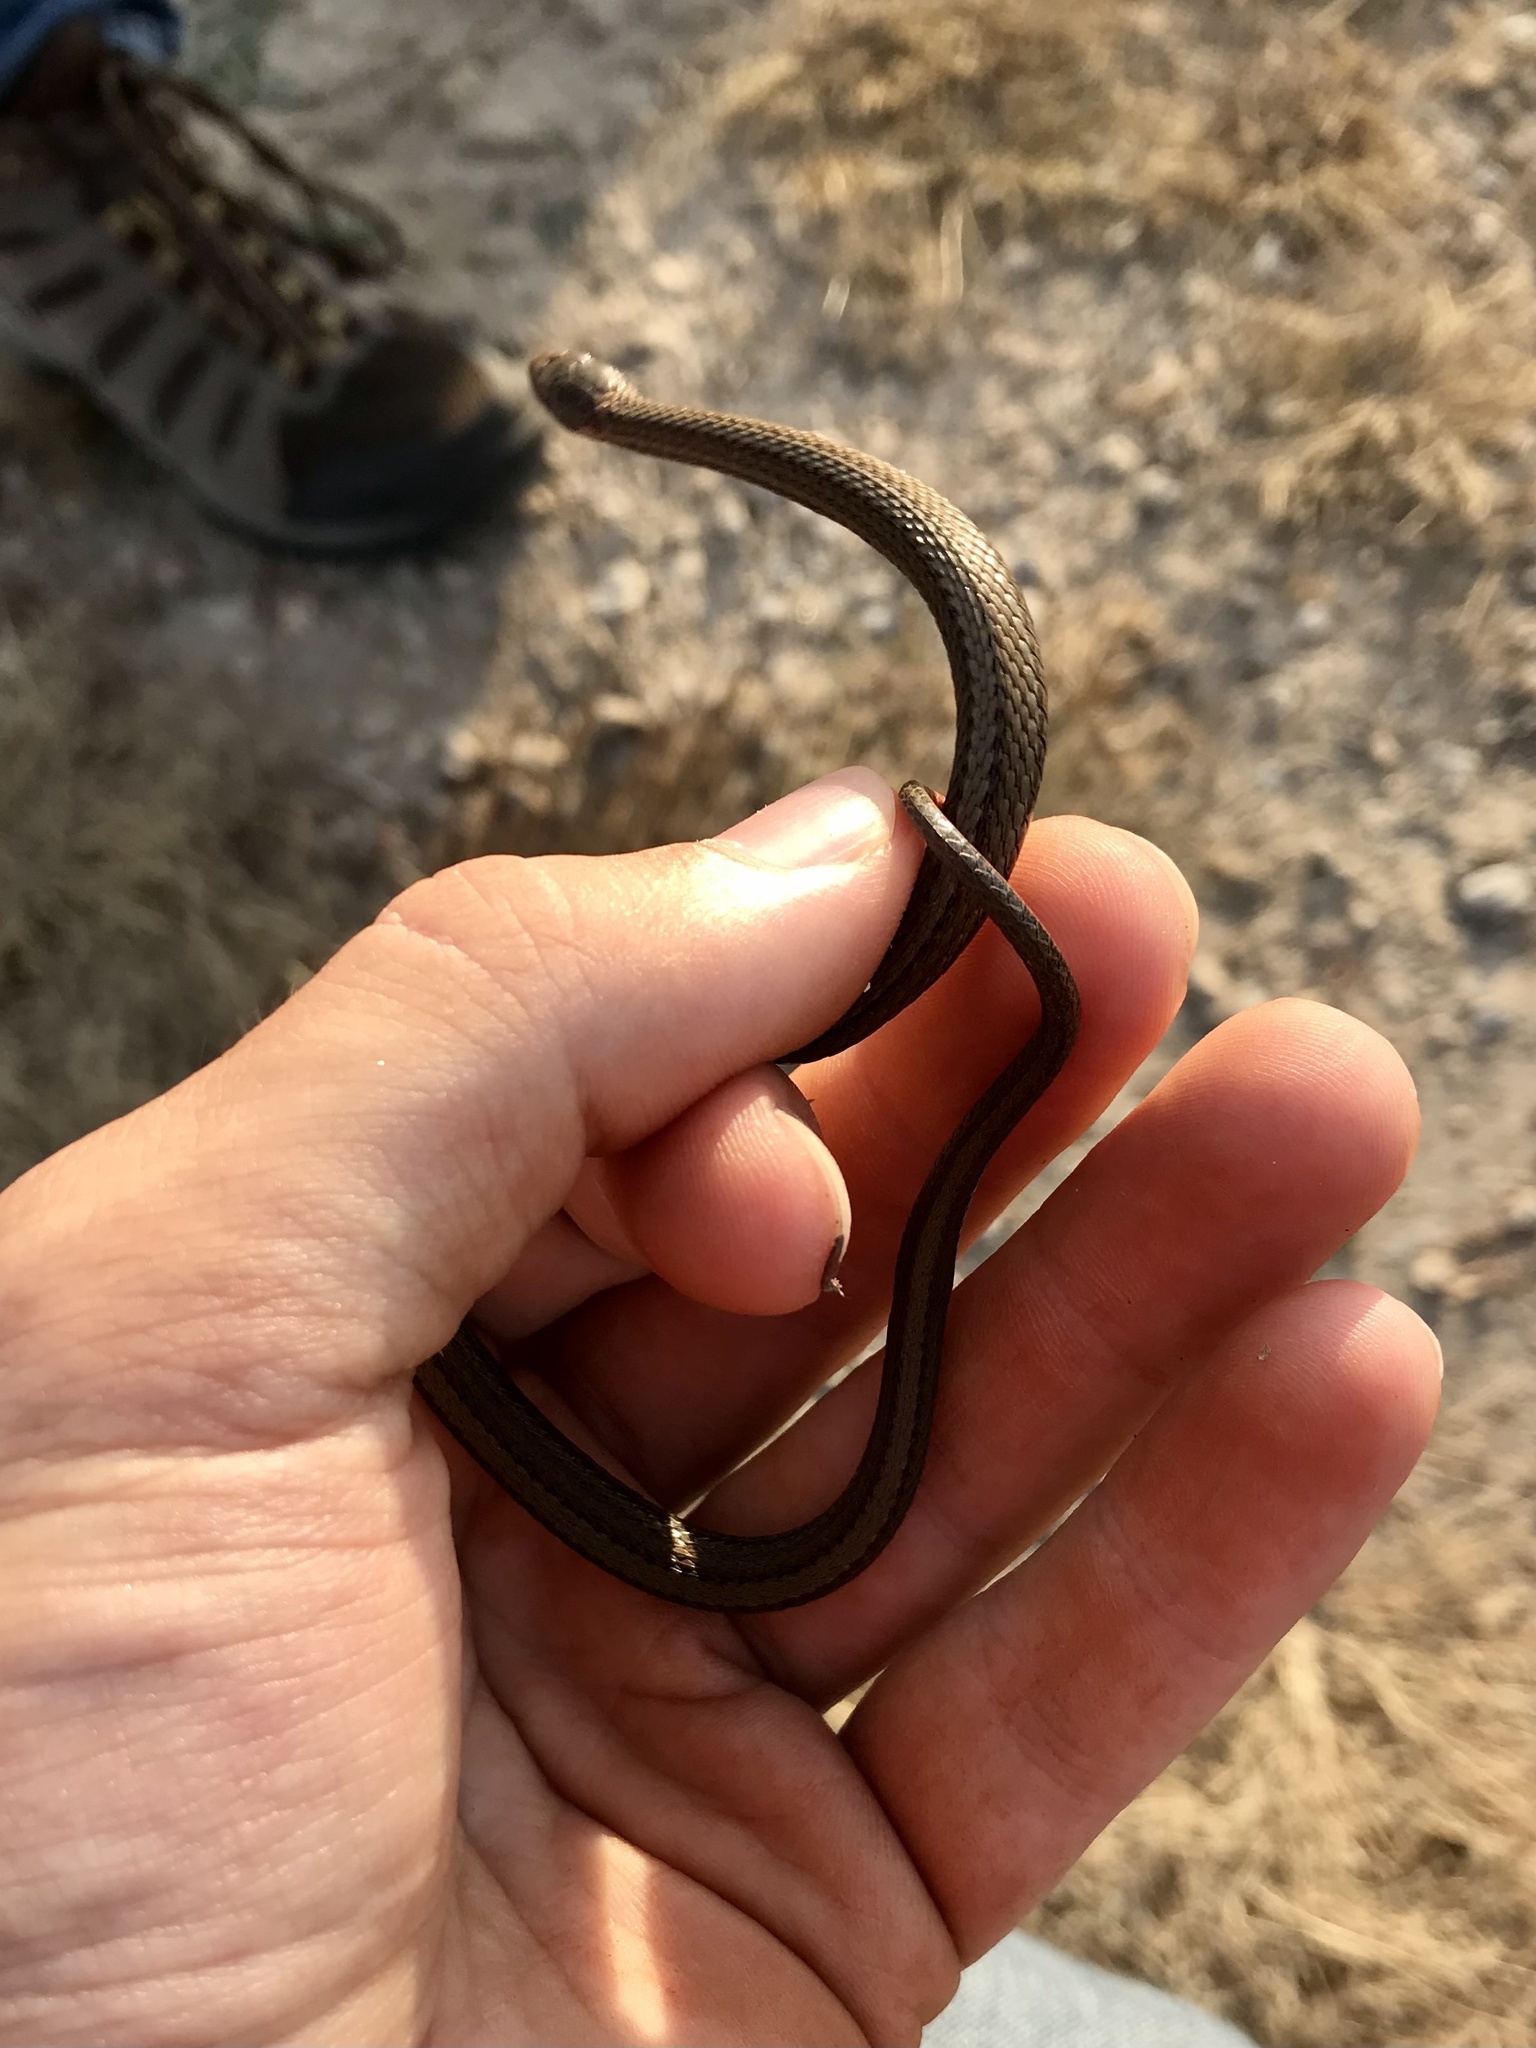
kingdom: Animalia
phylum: Chordata
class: Squamata
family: Colubridae
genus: Storeria
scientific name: Storeria occipitomaculata
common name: Redbelly snake
